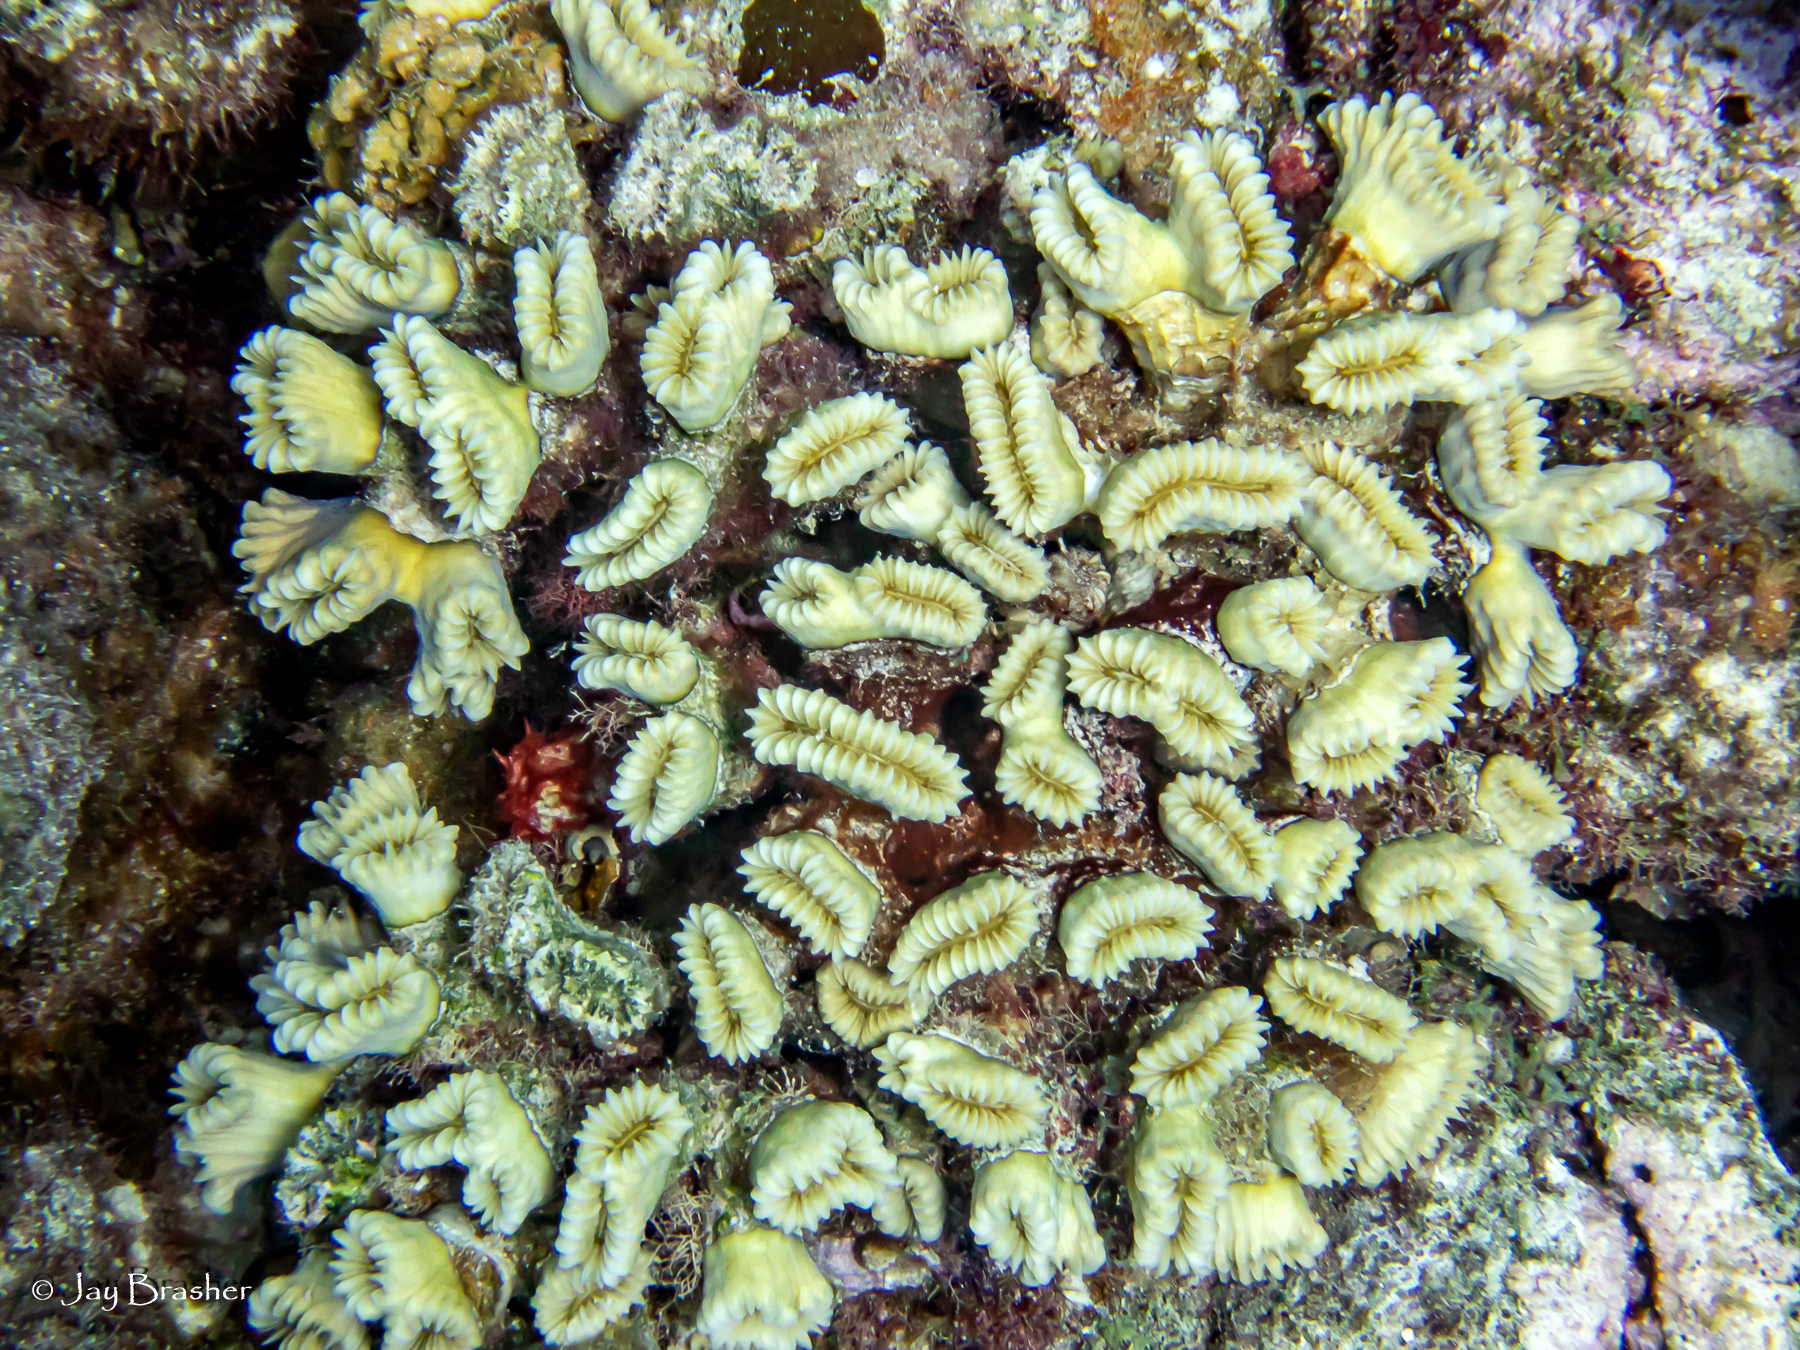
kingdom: Animalia
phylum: Cnidaria
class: Anthozoa
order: Scleractinia
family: Meandrinidae
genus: Eusmilia
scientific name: Eusmilia fastigiata
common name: Smooth flower coral
